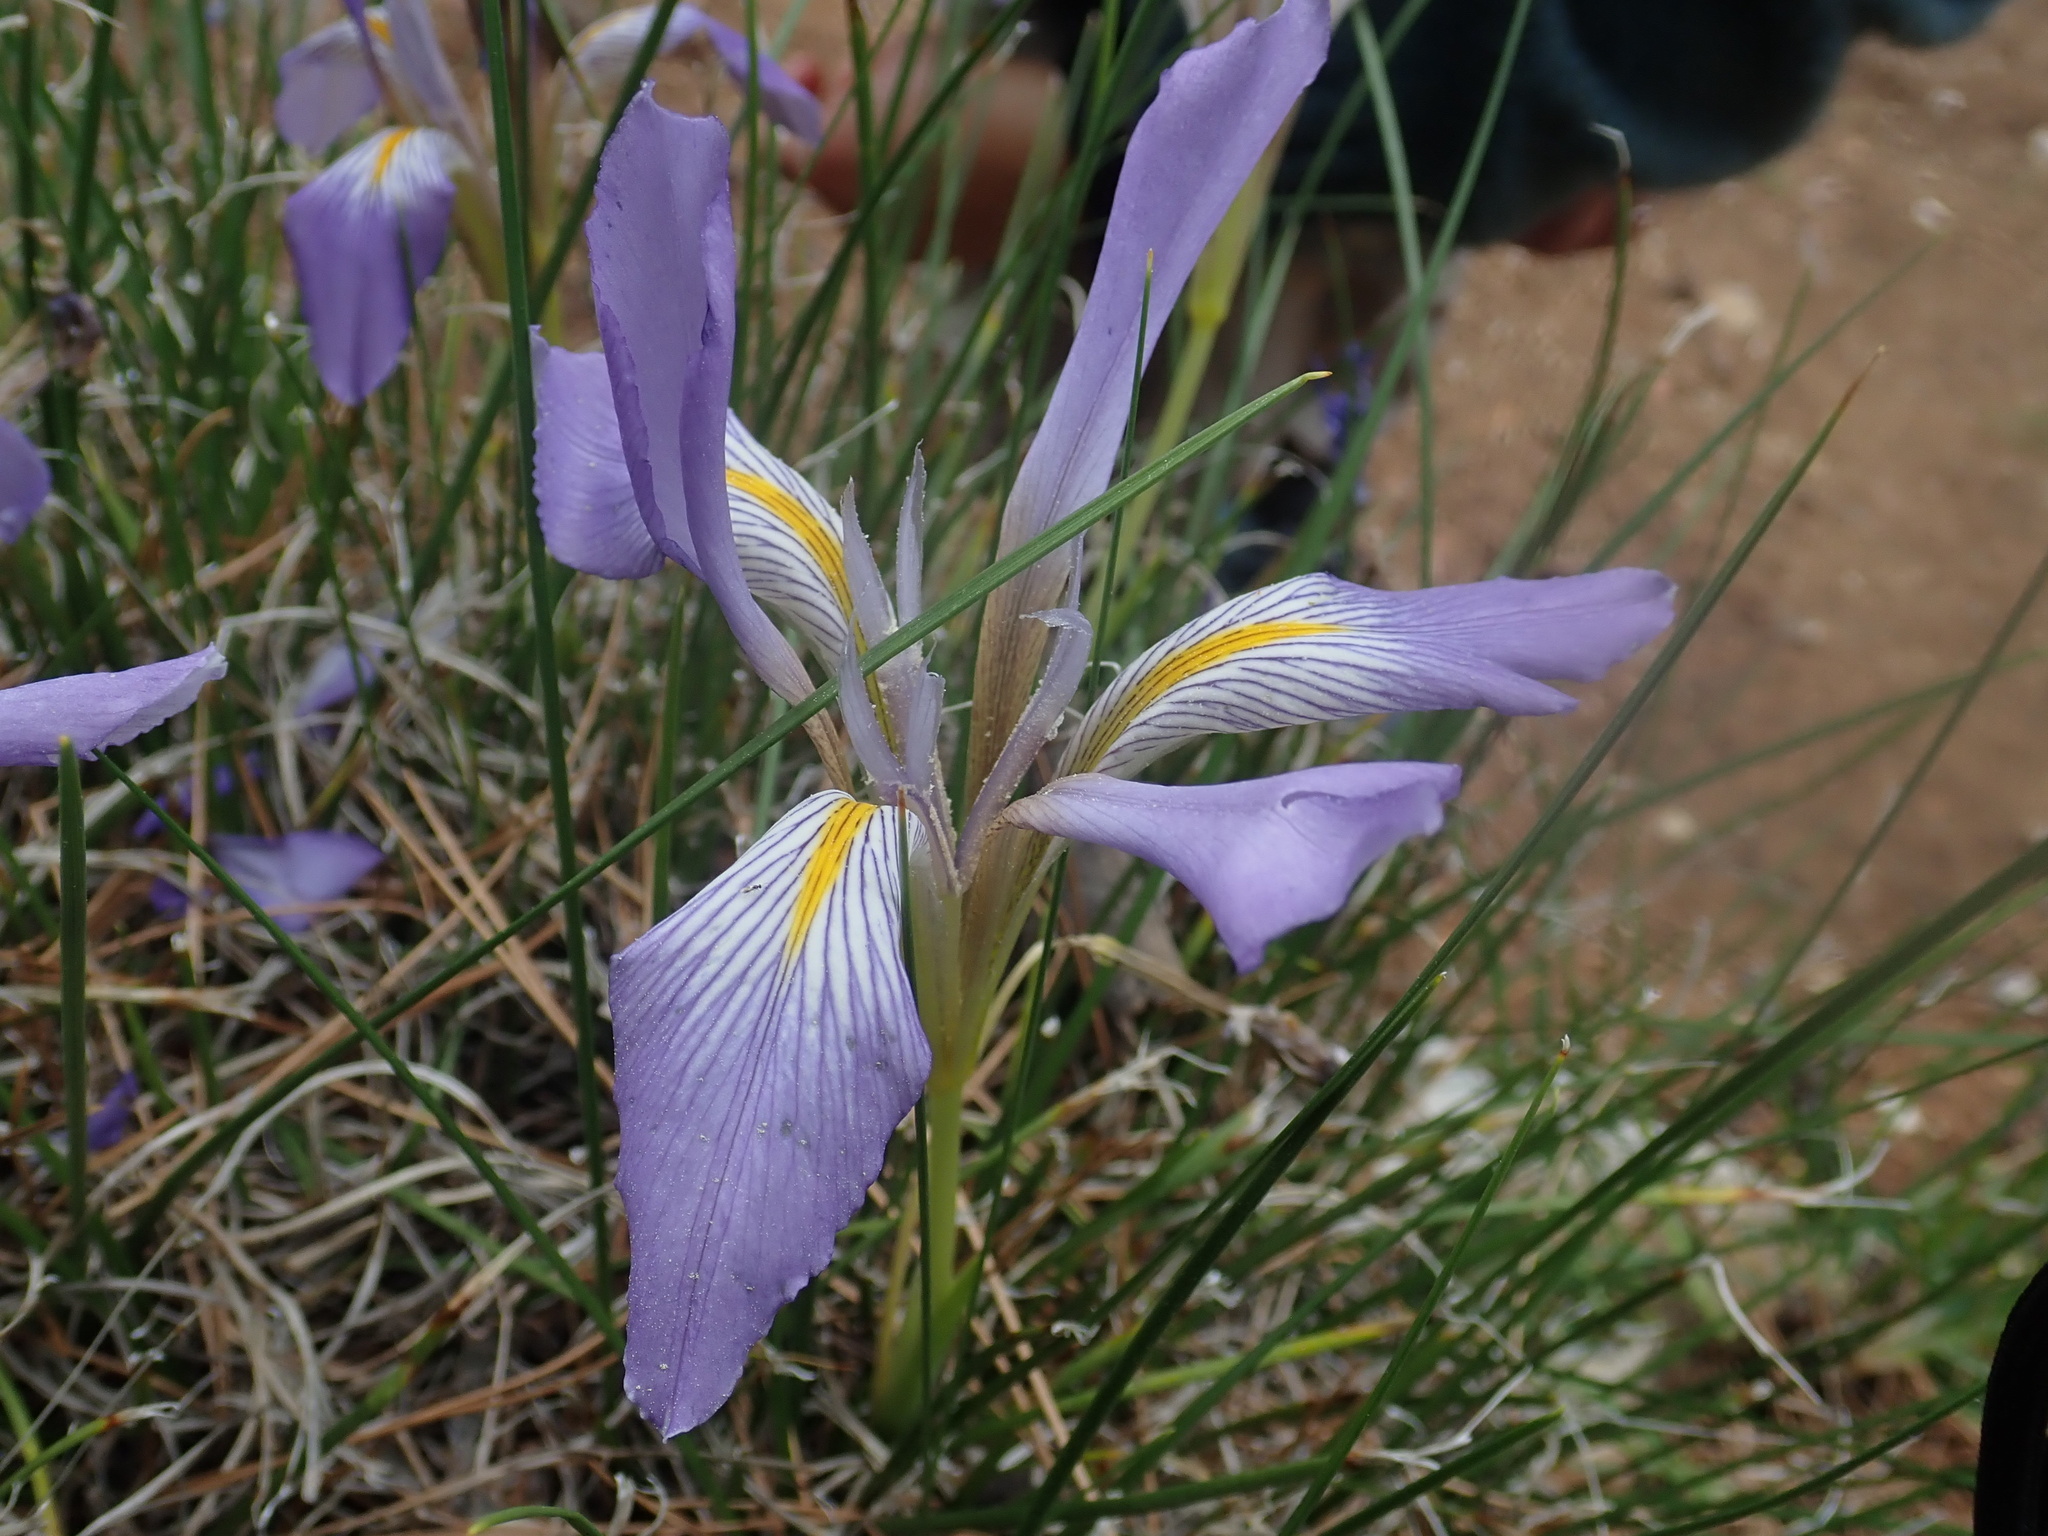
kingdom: Plantae
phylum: Tracheophyta
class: Liliopsida
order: Asparagales
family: Iridaceae
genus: Iris
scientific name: Iris unguicularis
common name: Algerian iris
